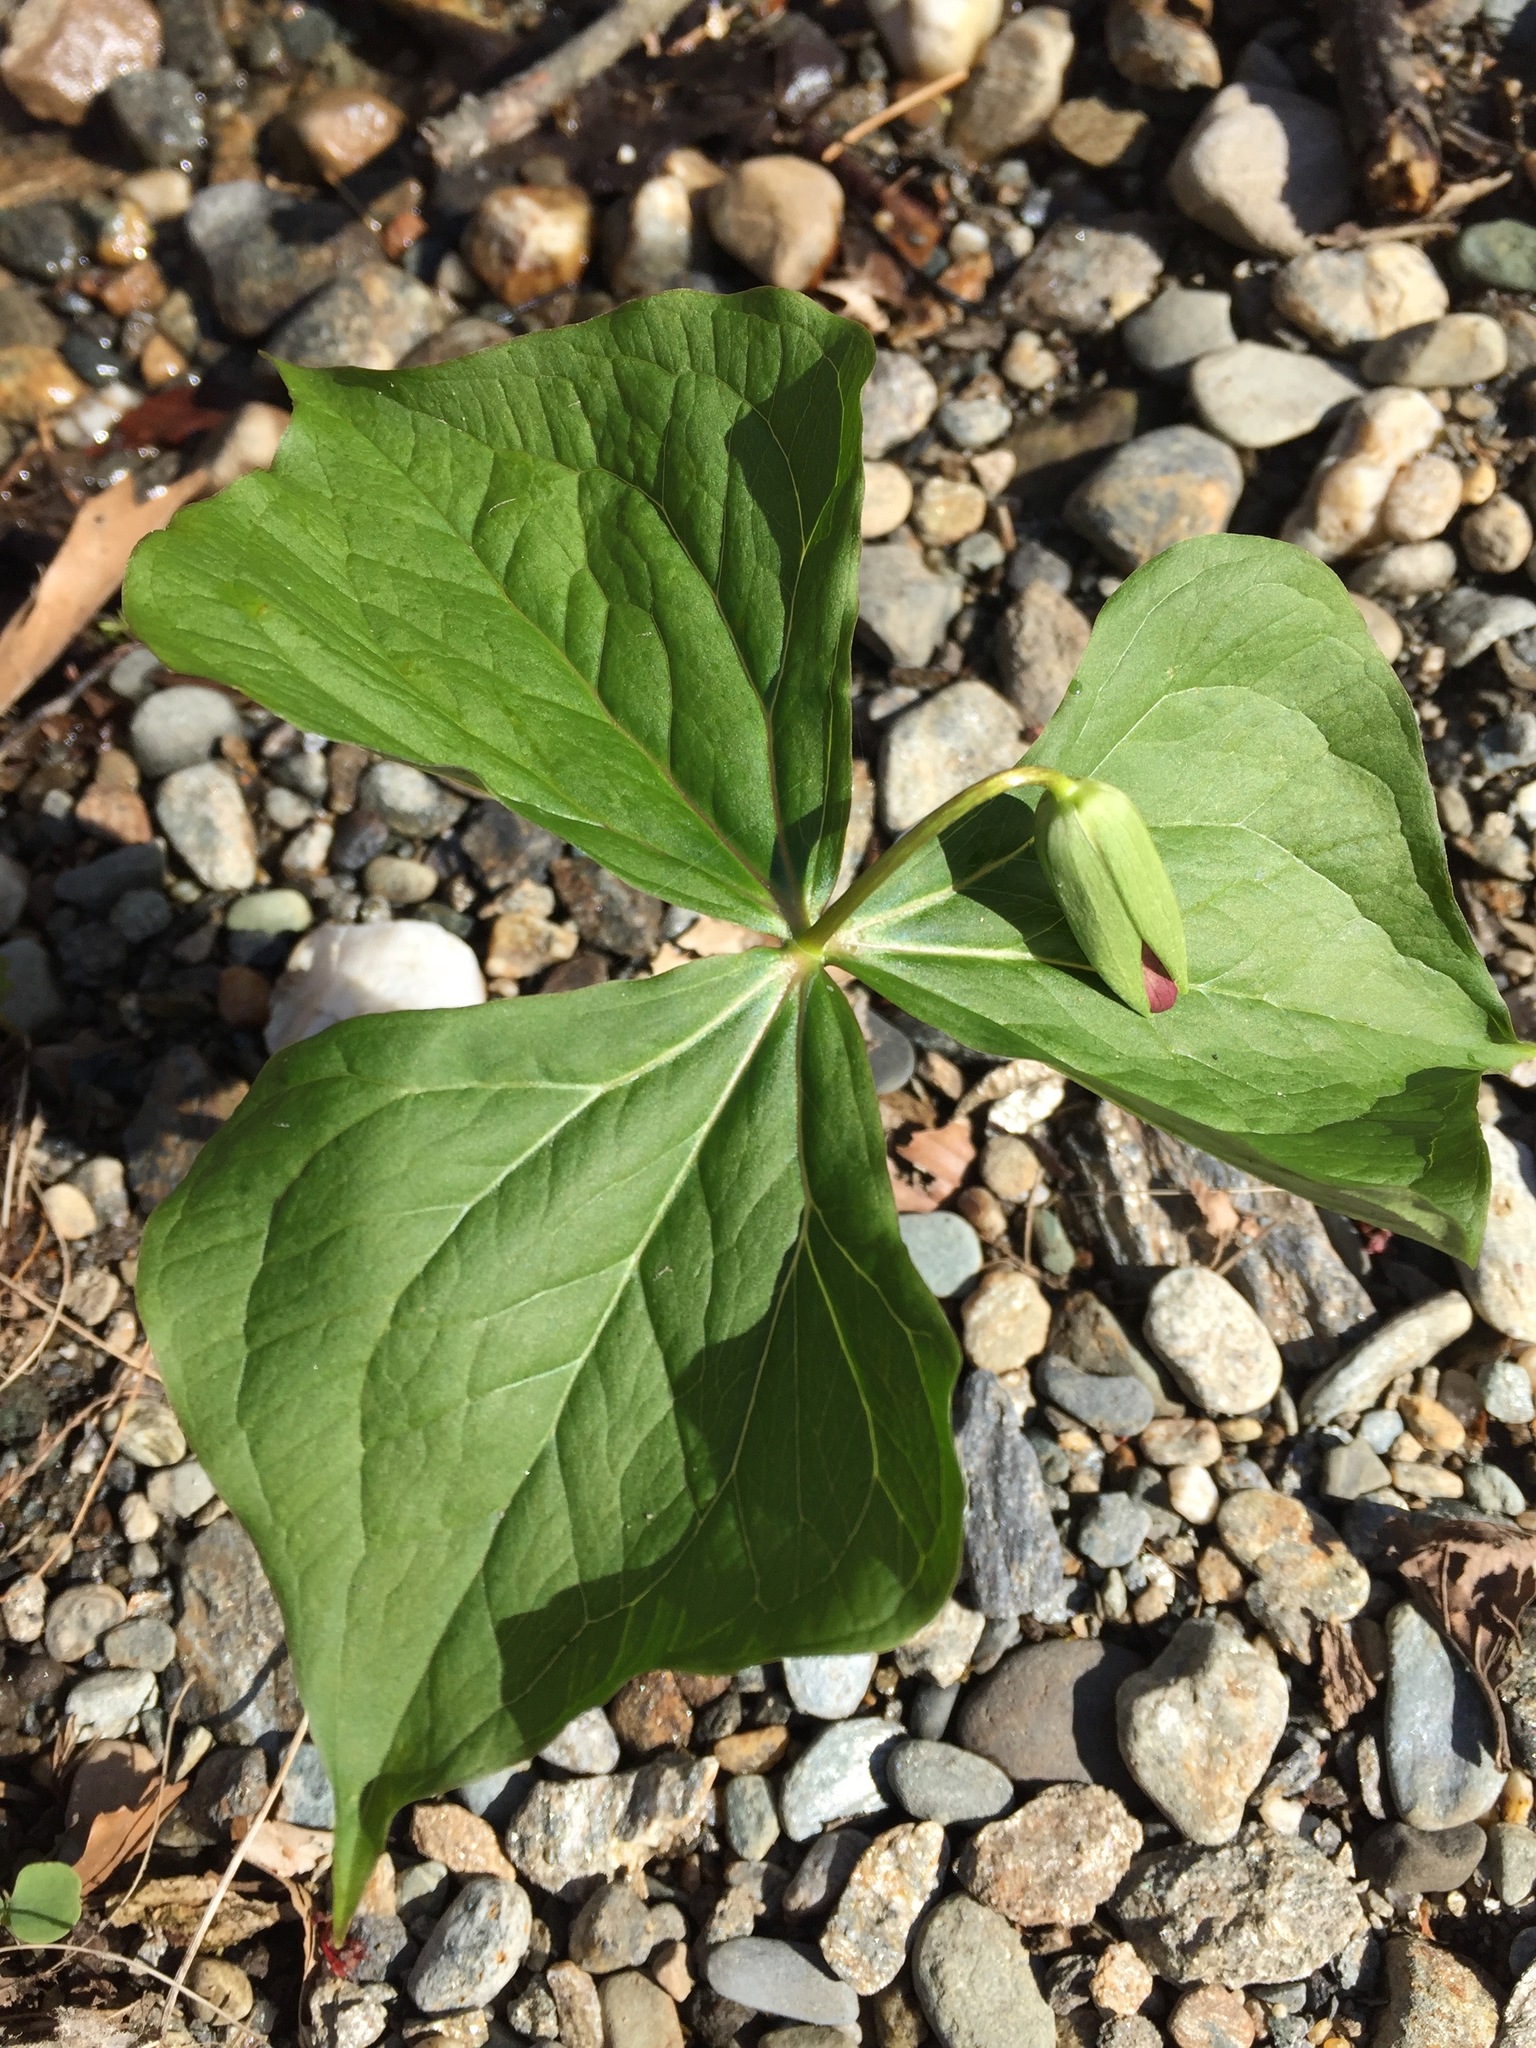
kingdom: Plantae
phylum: Tracheophyta
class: Liliopsida
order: Liliales
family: Melanthiaceae
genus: Trillium
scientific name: Trillium erectum
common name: Purple trillium
